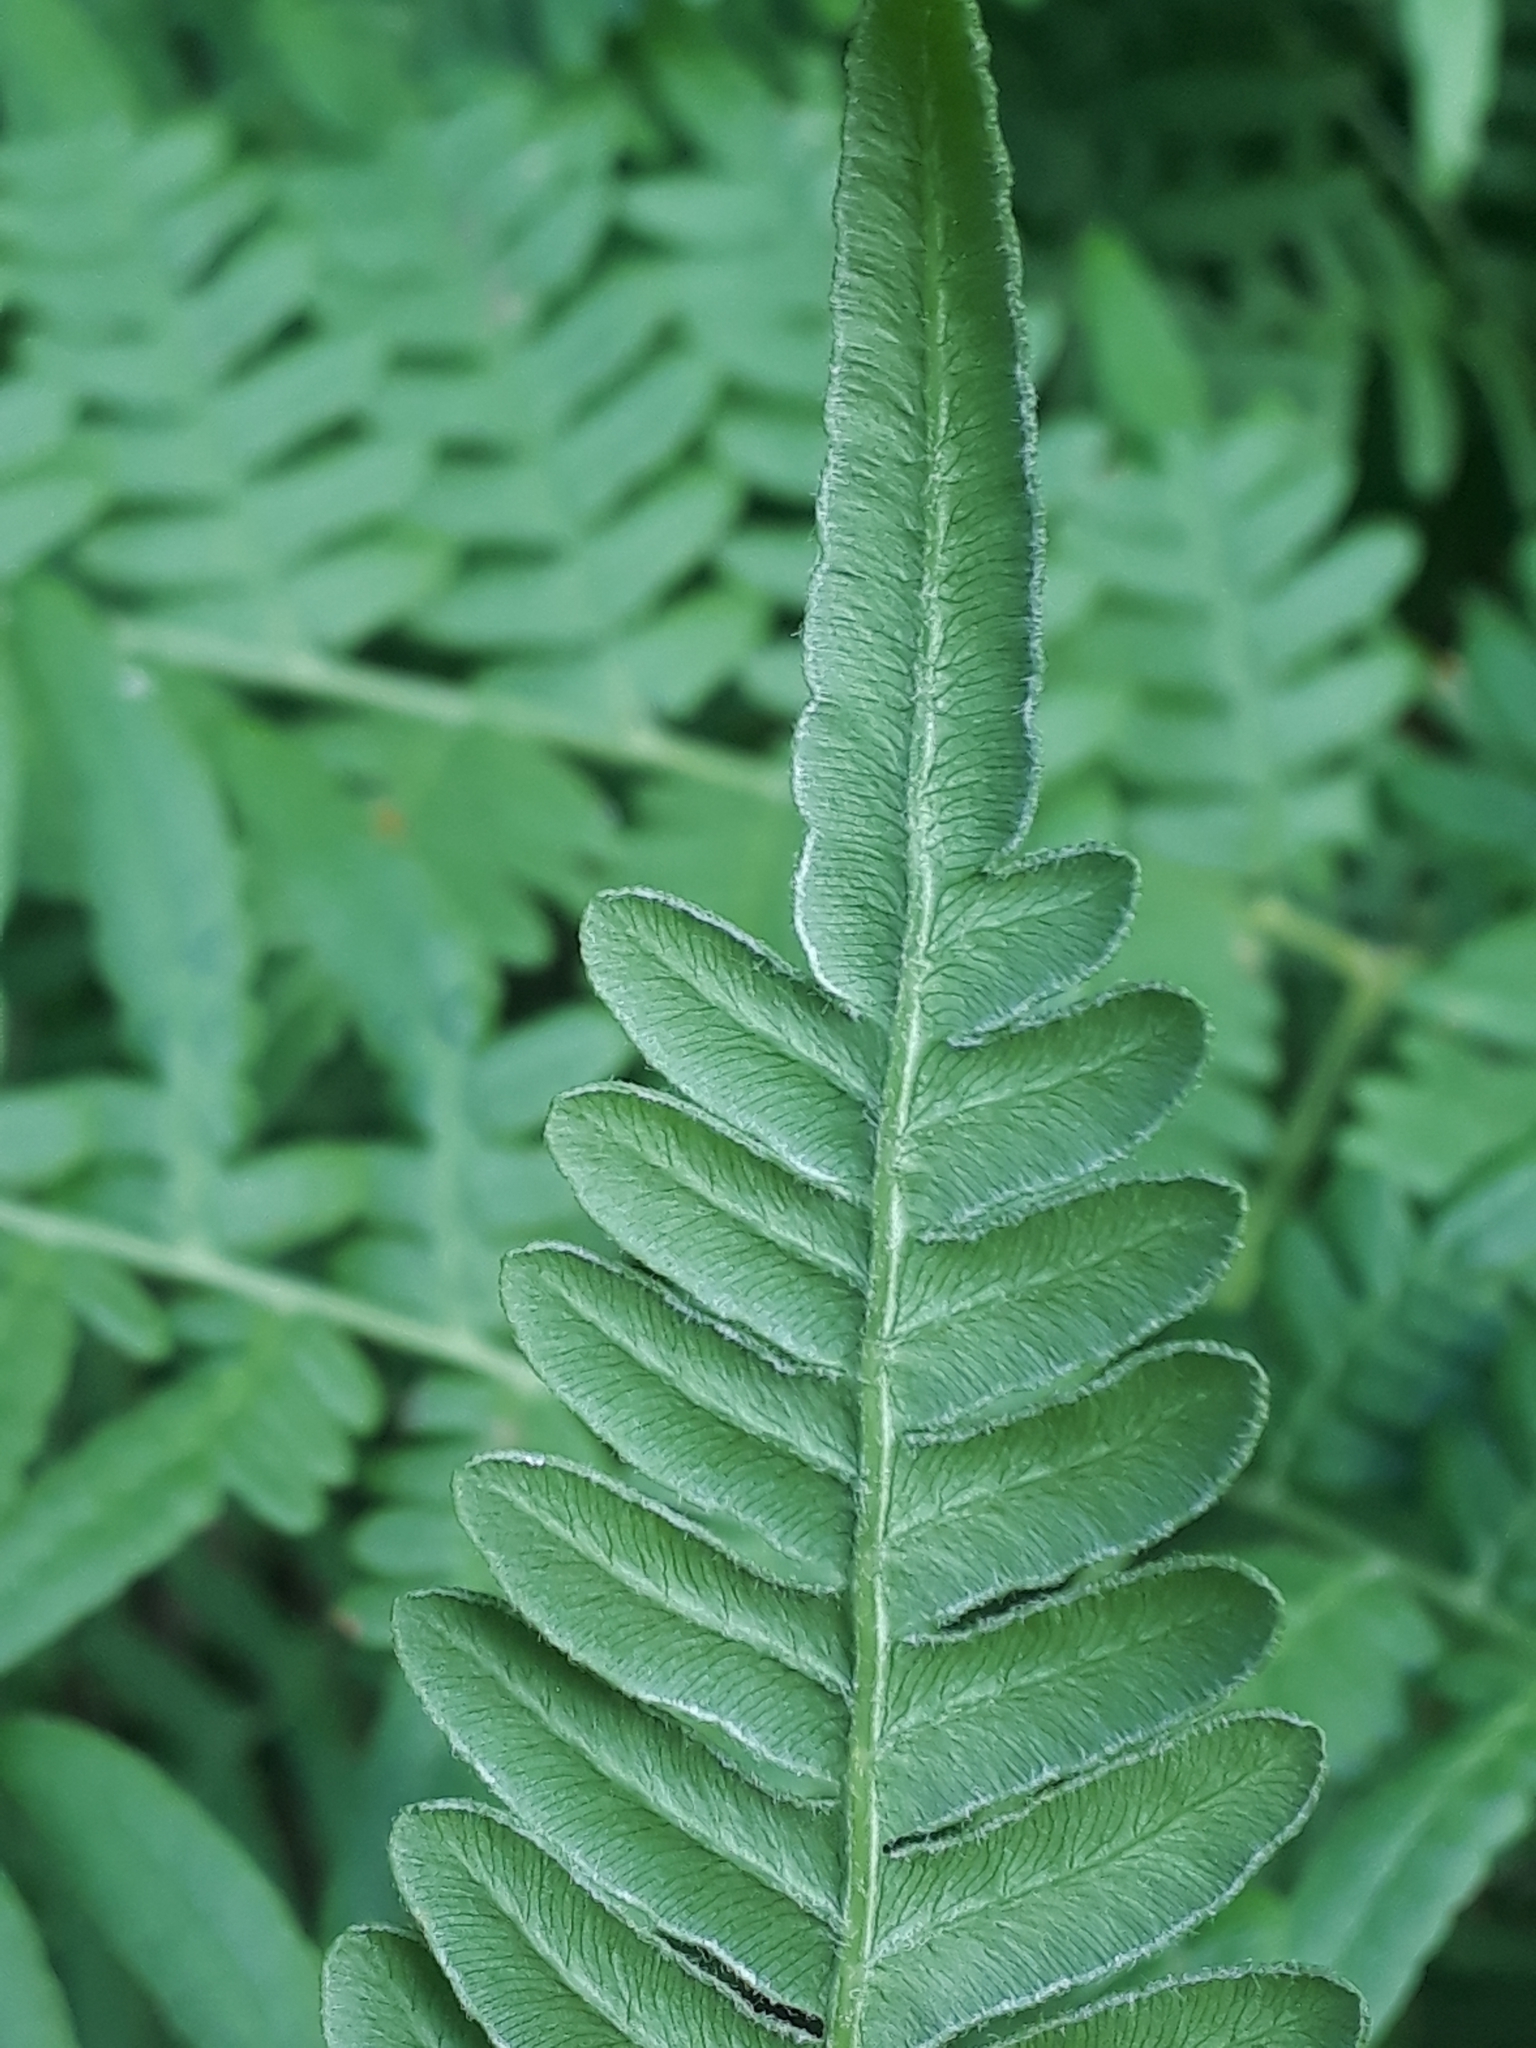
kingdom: Plantae
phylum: Tracheophyta
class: Polypodiopsida
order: Polypodiales
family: Dennstaedtiaceae
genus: Pteridium
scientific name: Pteridium aquilinum
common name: Bracken
